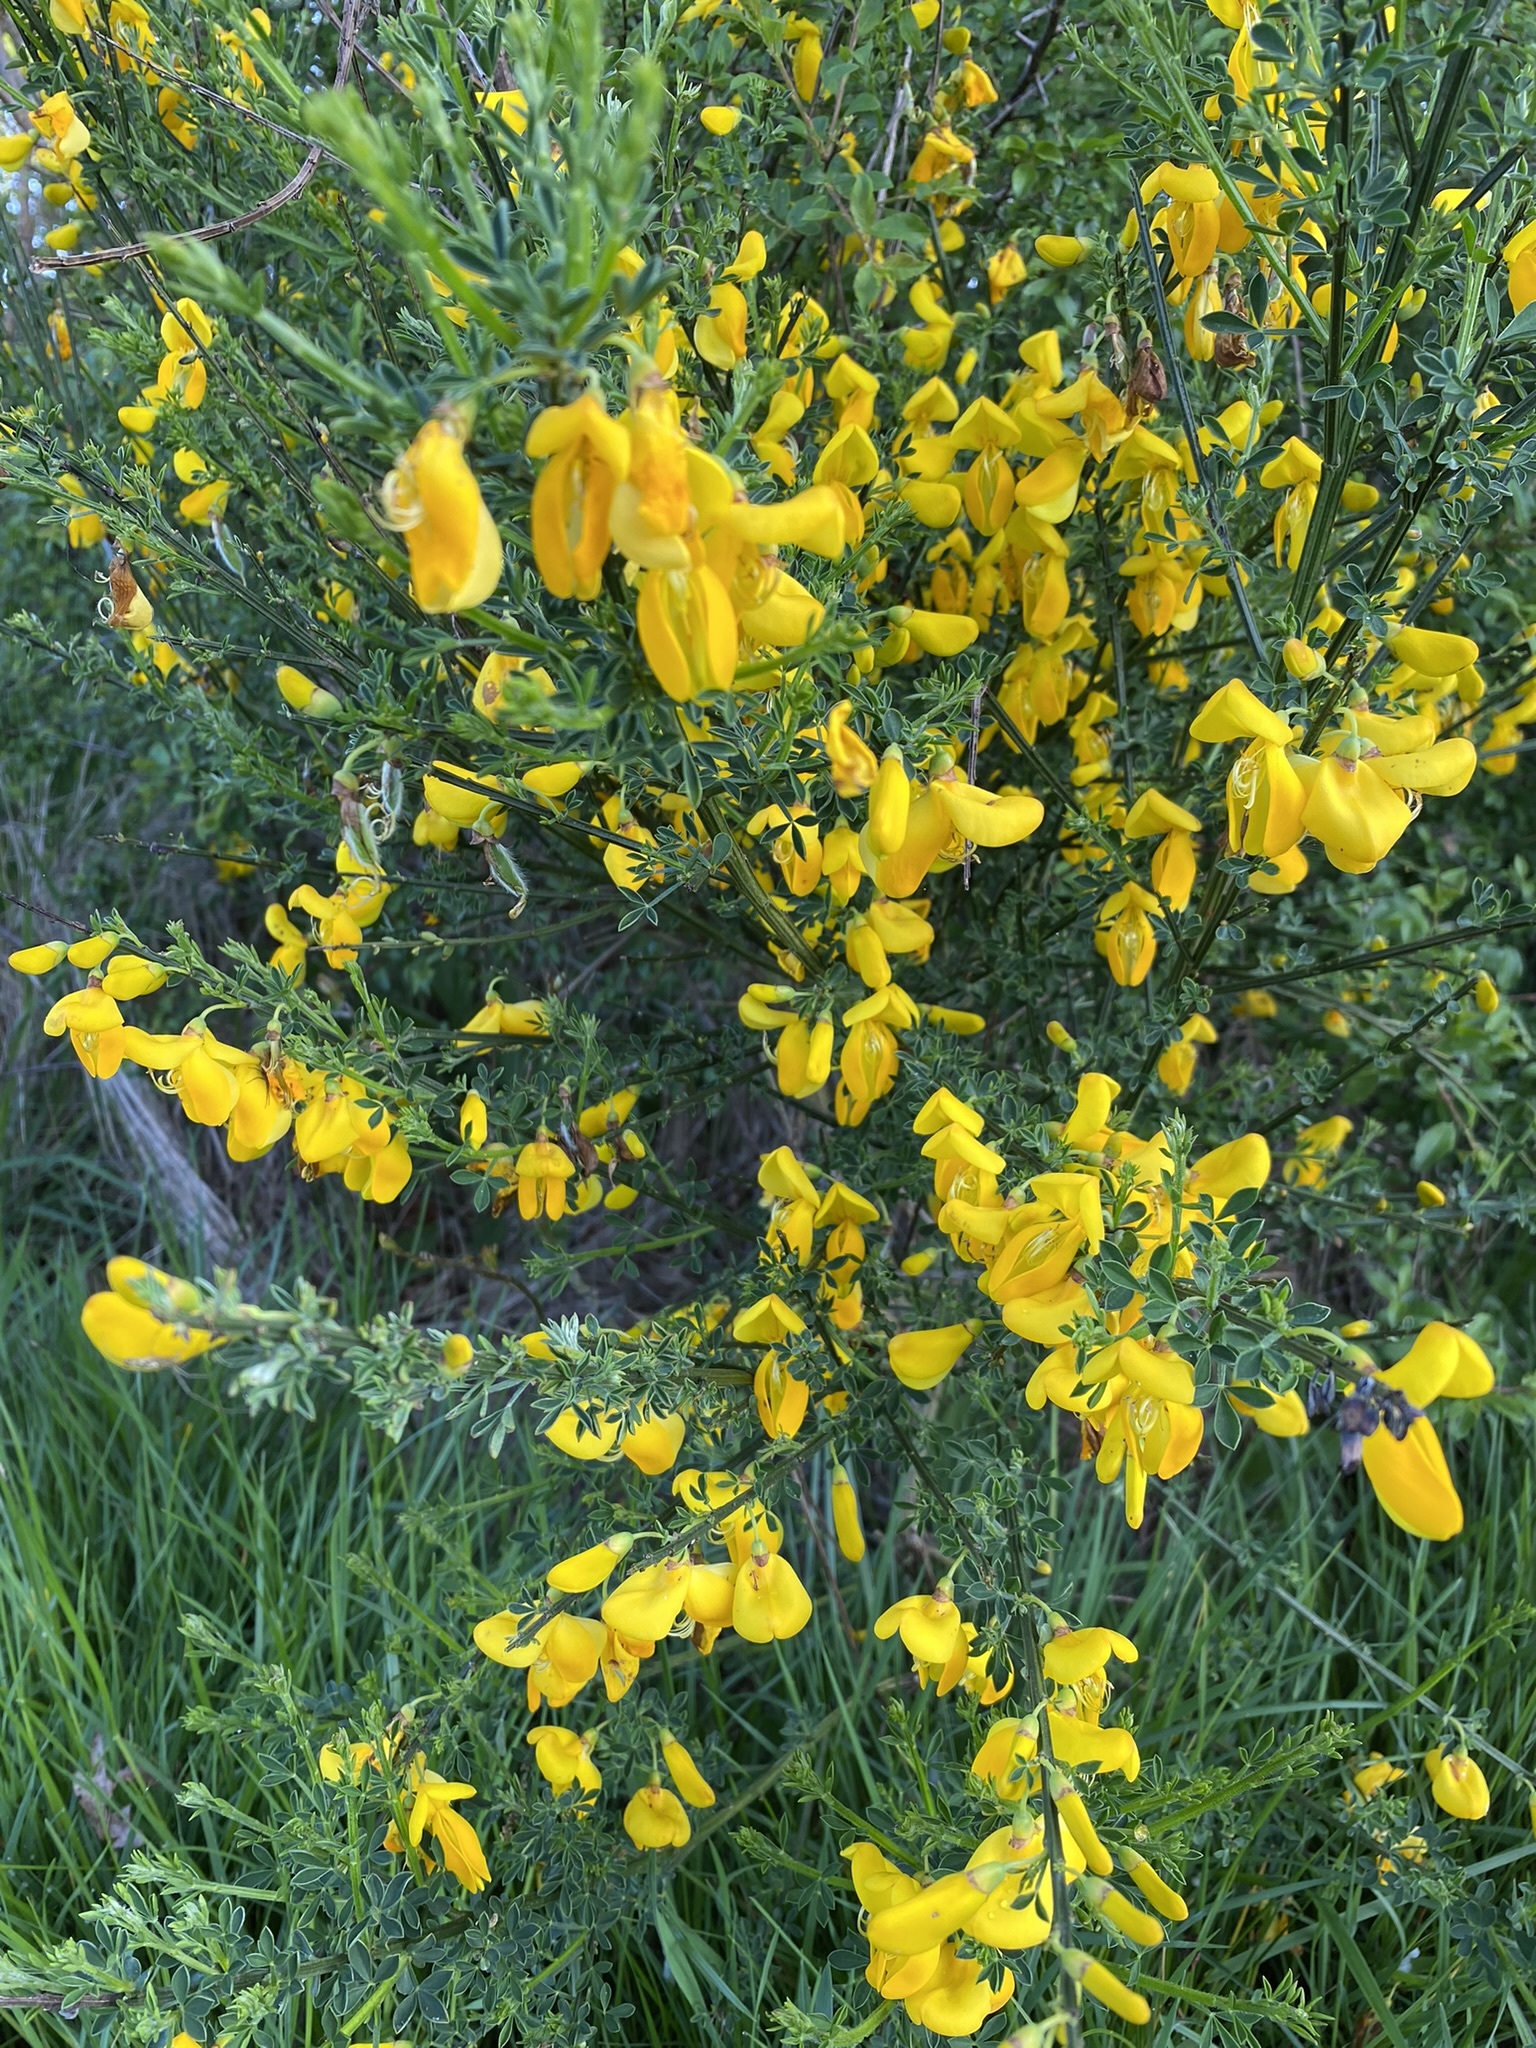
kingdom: Plantae
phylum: Tracheophyta
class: Magnoliopsida
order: Fabales
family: Fabaceae
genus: Cytisus
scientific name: Cytisus scoparius
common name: Scotch broom
